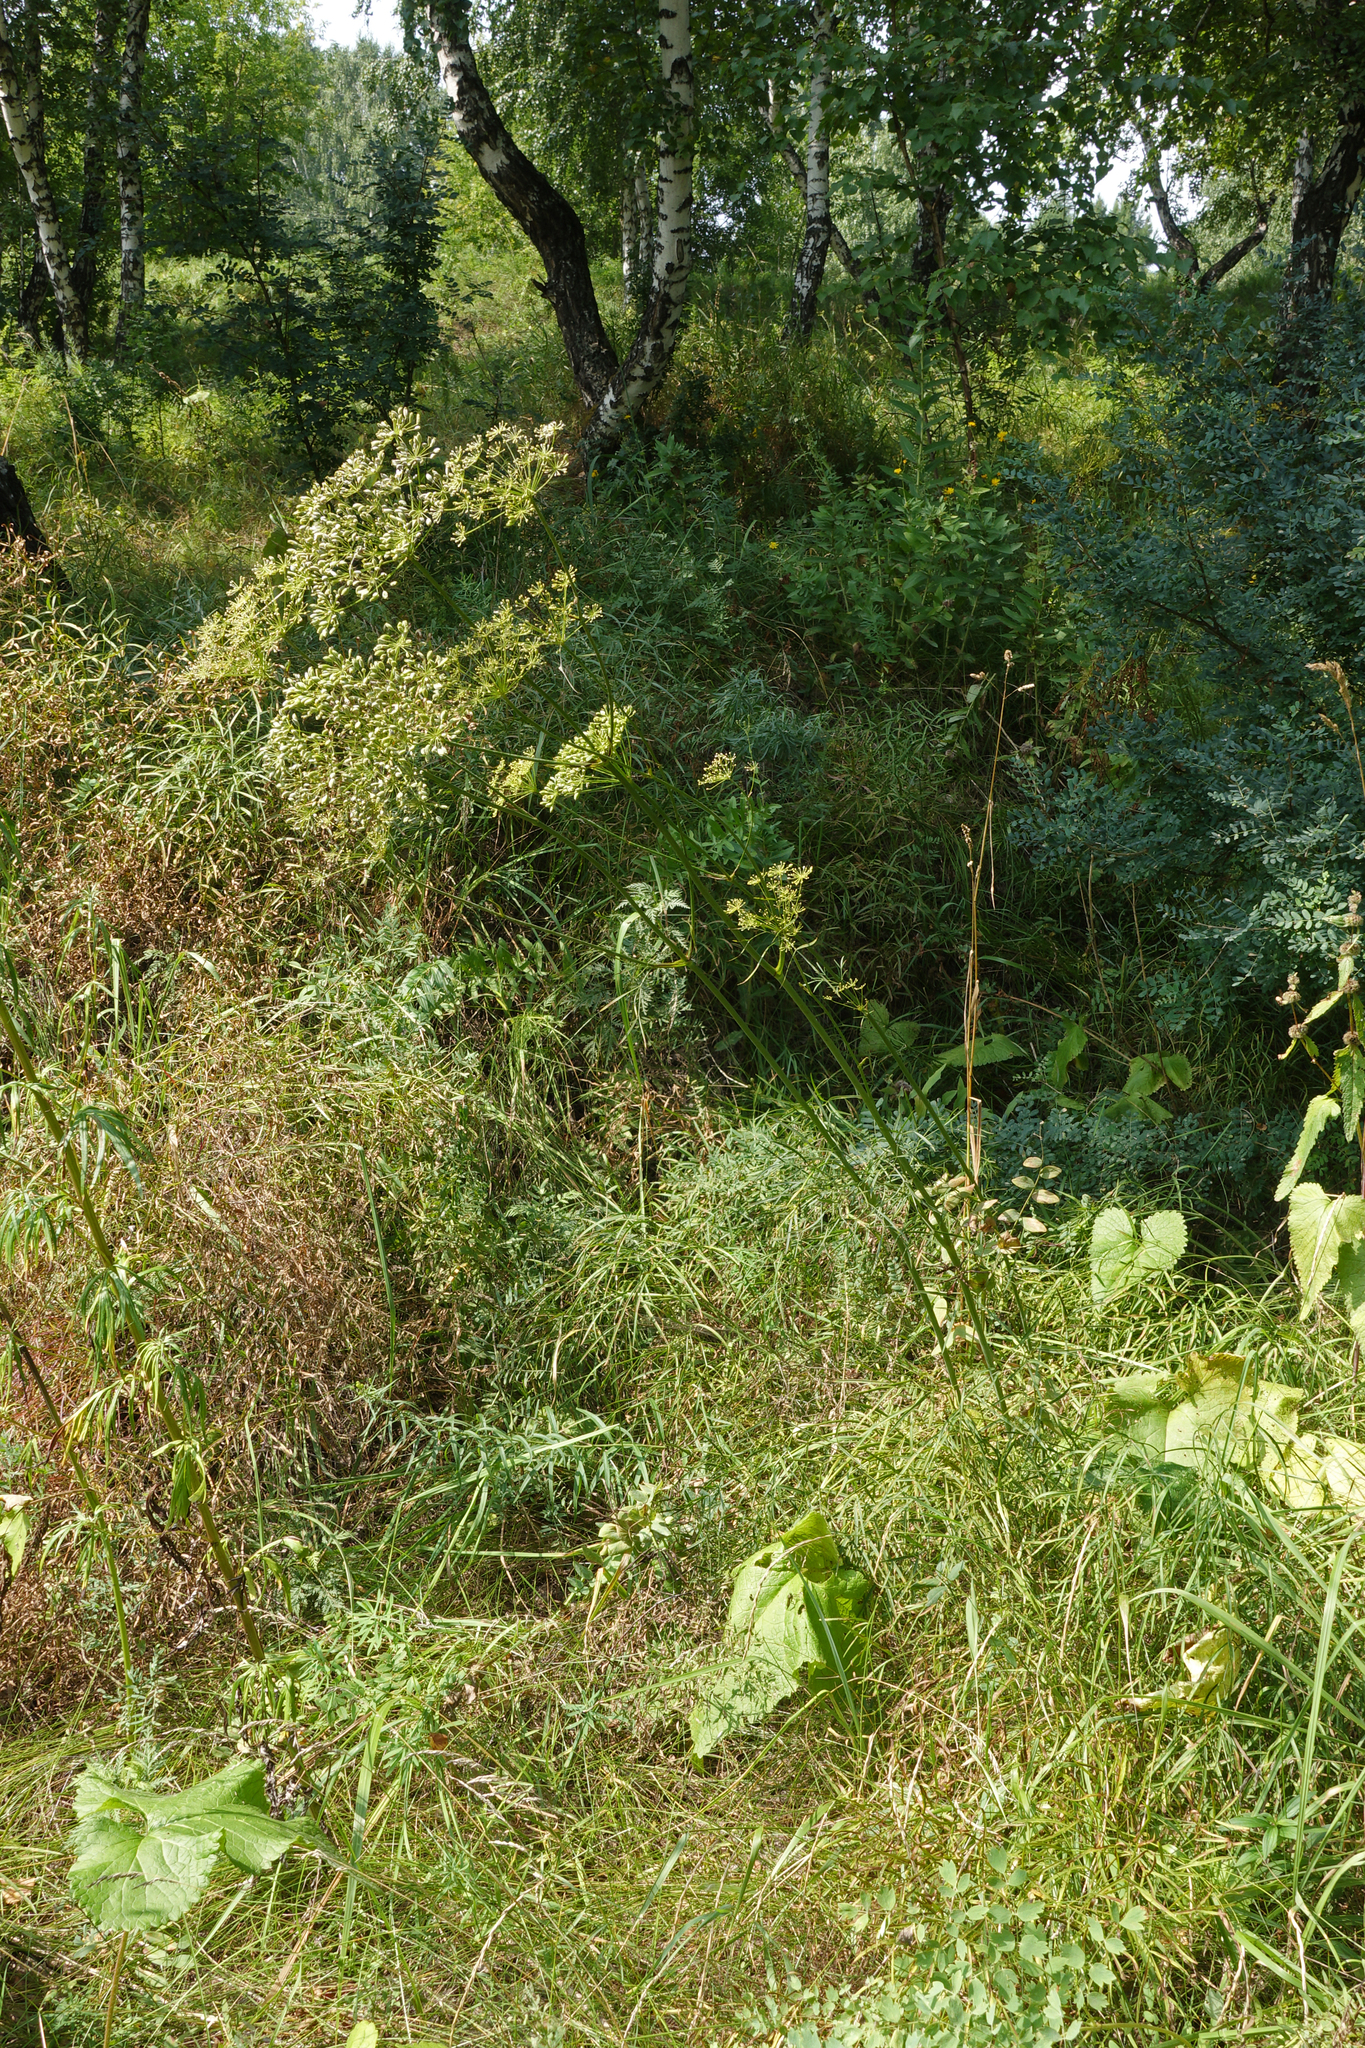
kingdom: Plantae
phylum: Tracheophyta
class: Magnoliopsida
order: Apiales
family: Apiaceae
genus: Peucedanum
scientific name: Peucedanum morisonii
